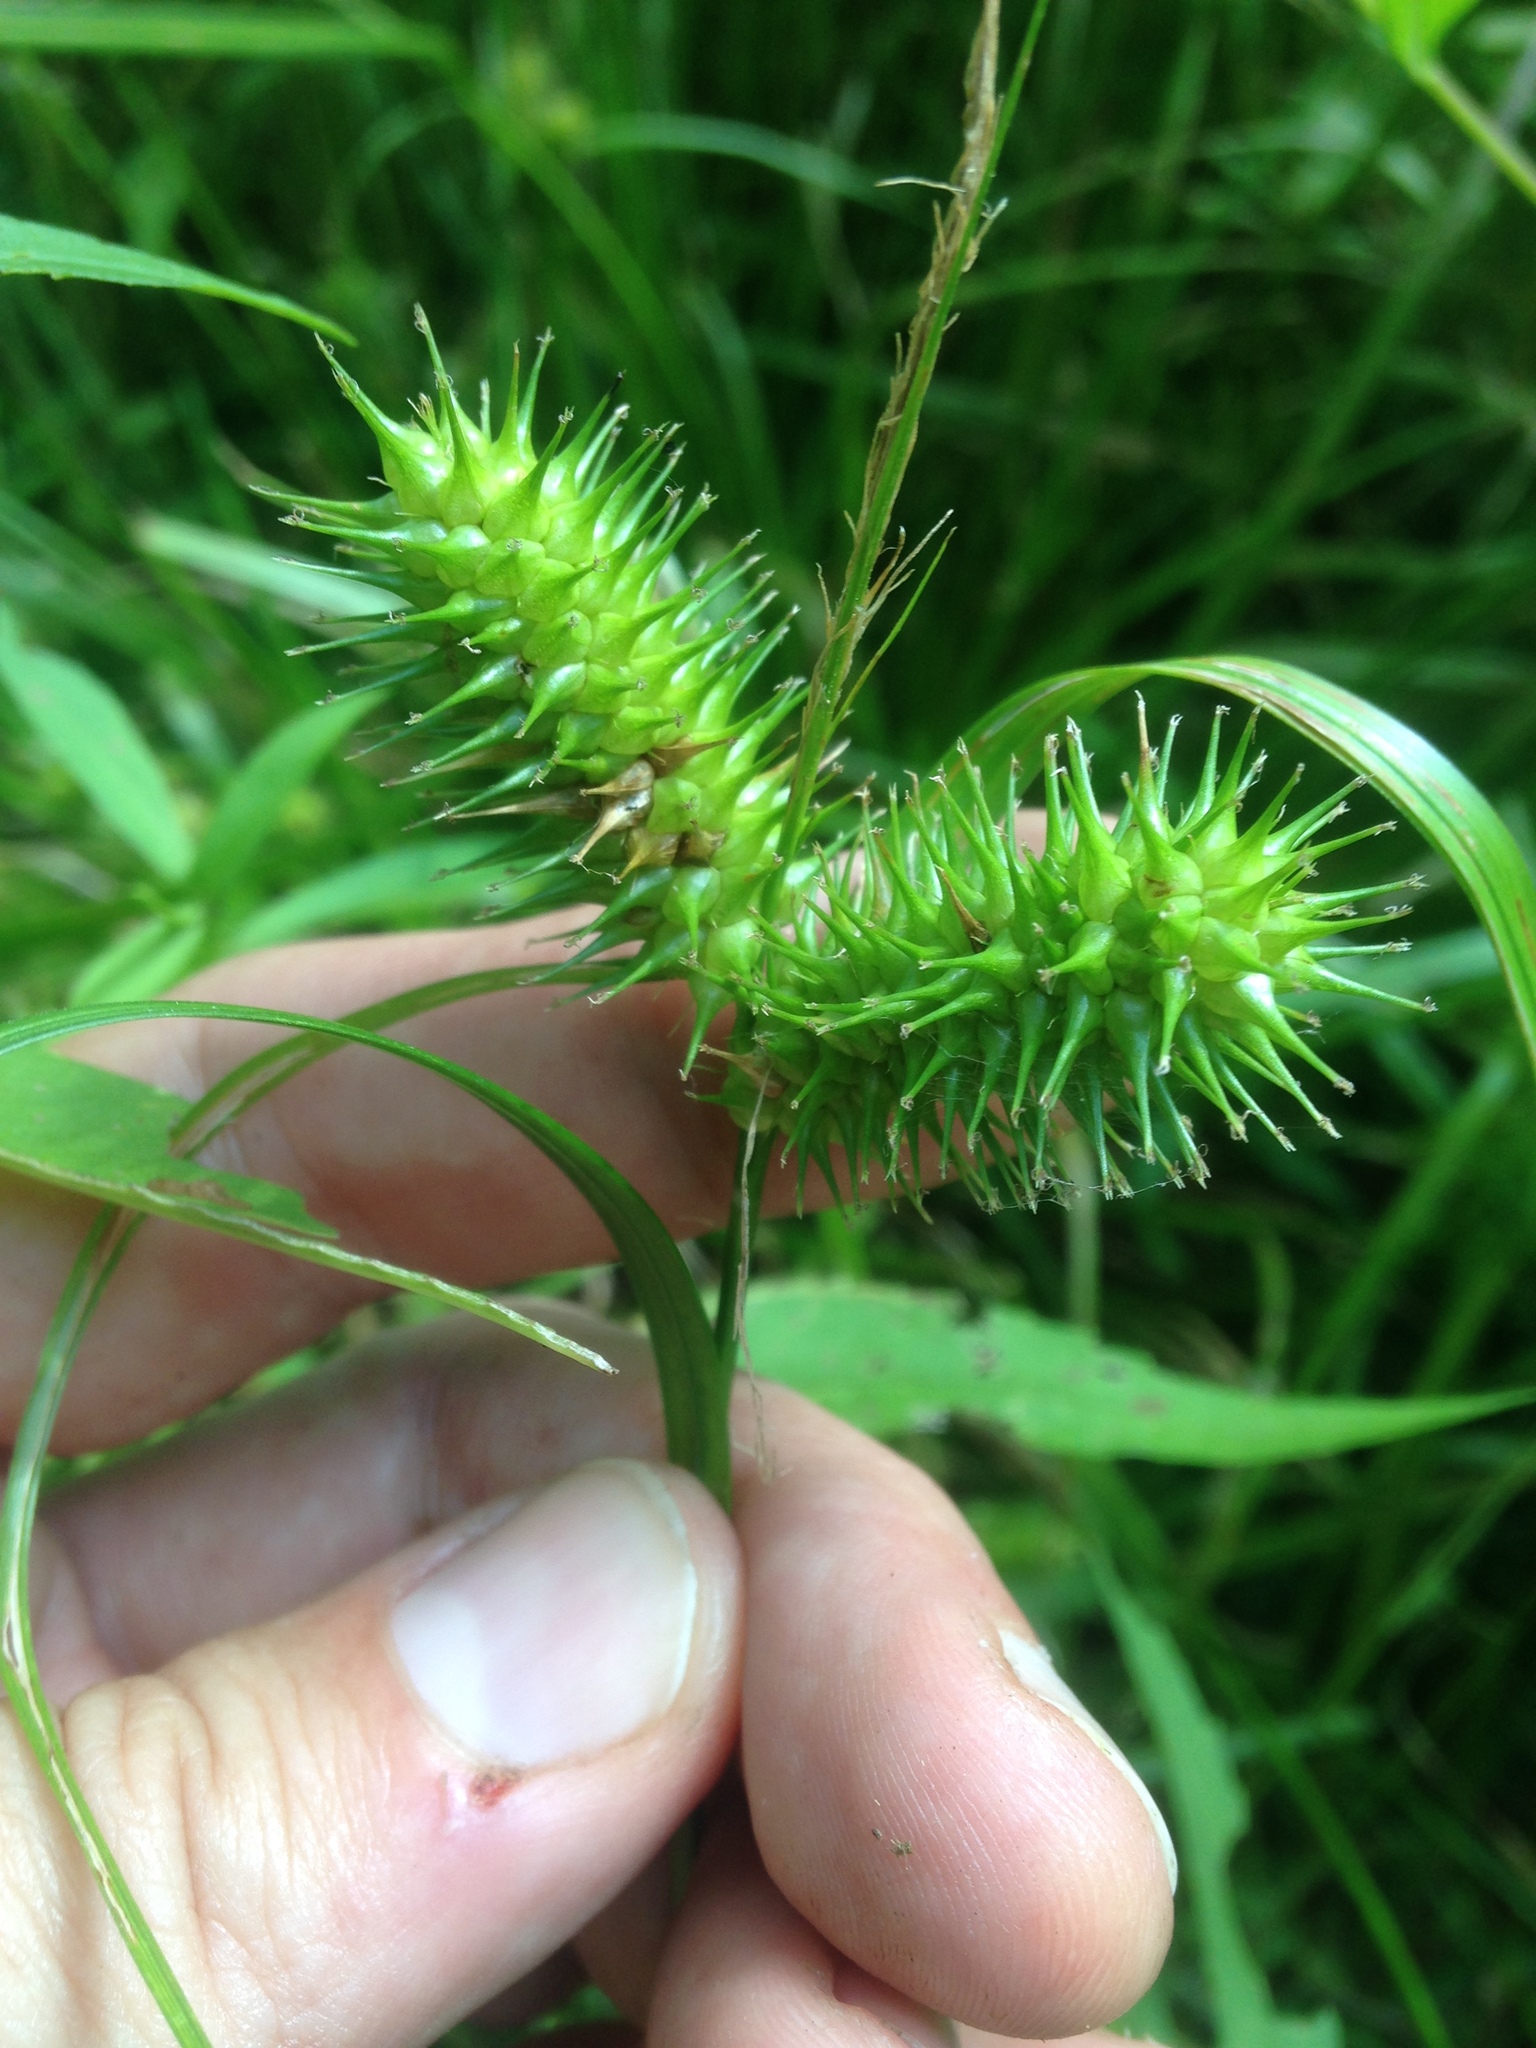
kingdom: Plantae
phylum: Tracheophyta
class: Liliopsida
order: Poales
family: Cyperaceae
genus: Carex
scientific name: Carex lurida
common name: Sallow sedge
